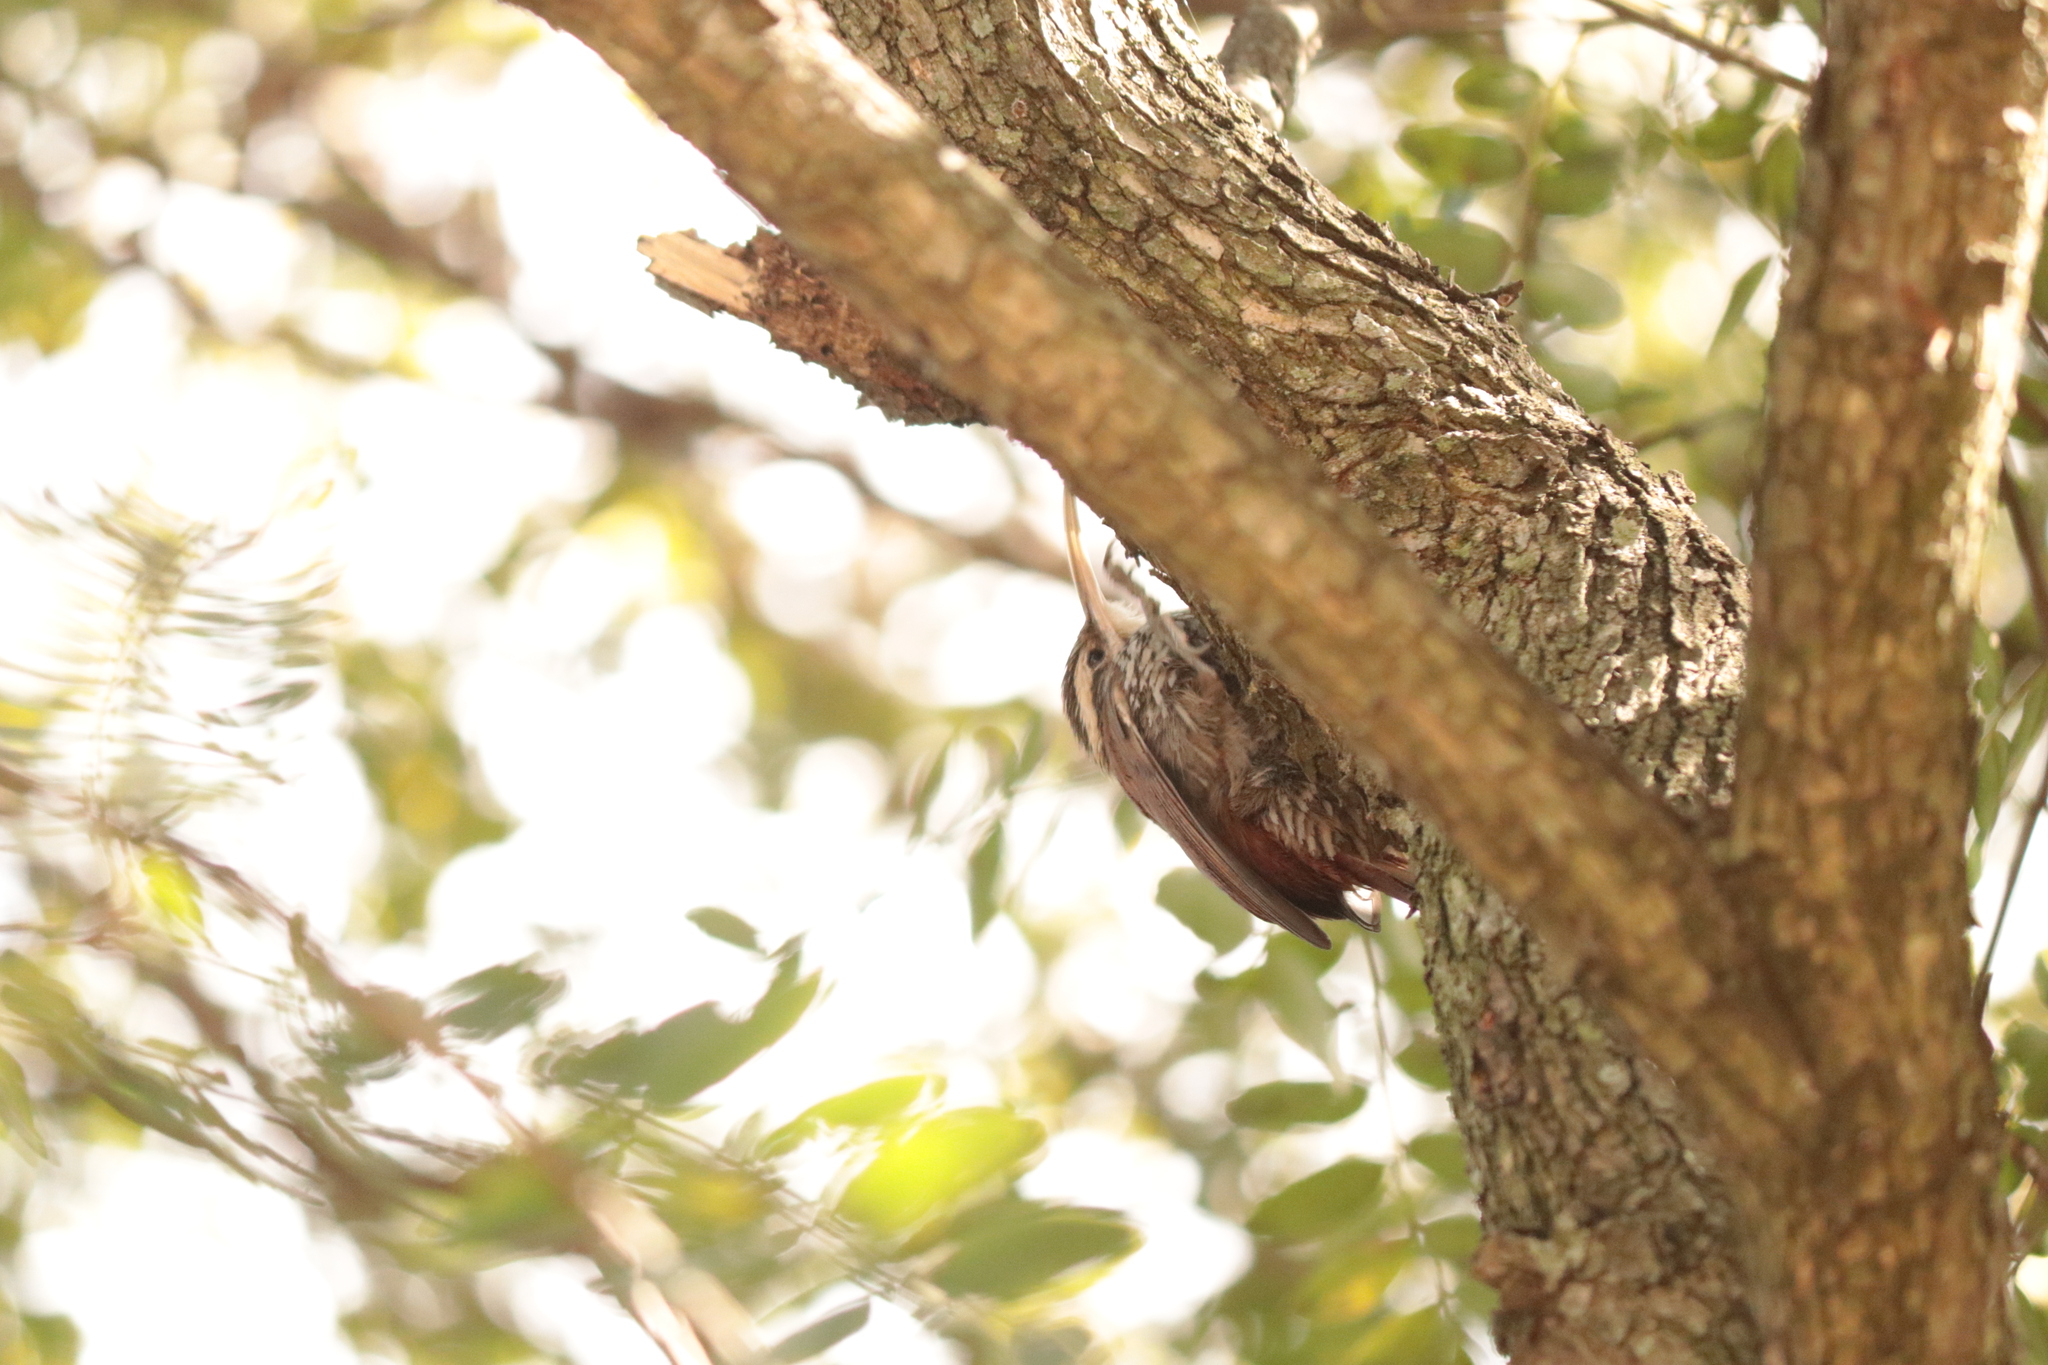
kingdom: Animalia
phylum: Chordata
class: Aves
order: Passeriformes
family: Furnariidae
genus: Lepidocolaptes
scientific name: Lepidocolaptes angustirostris
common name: Narrow-billed woodcreeper
